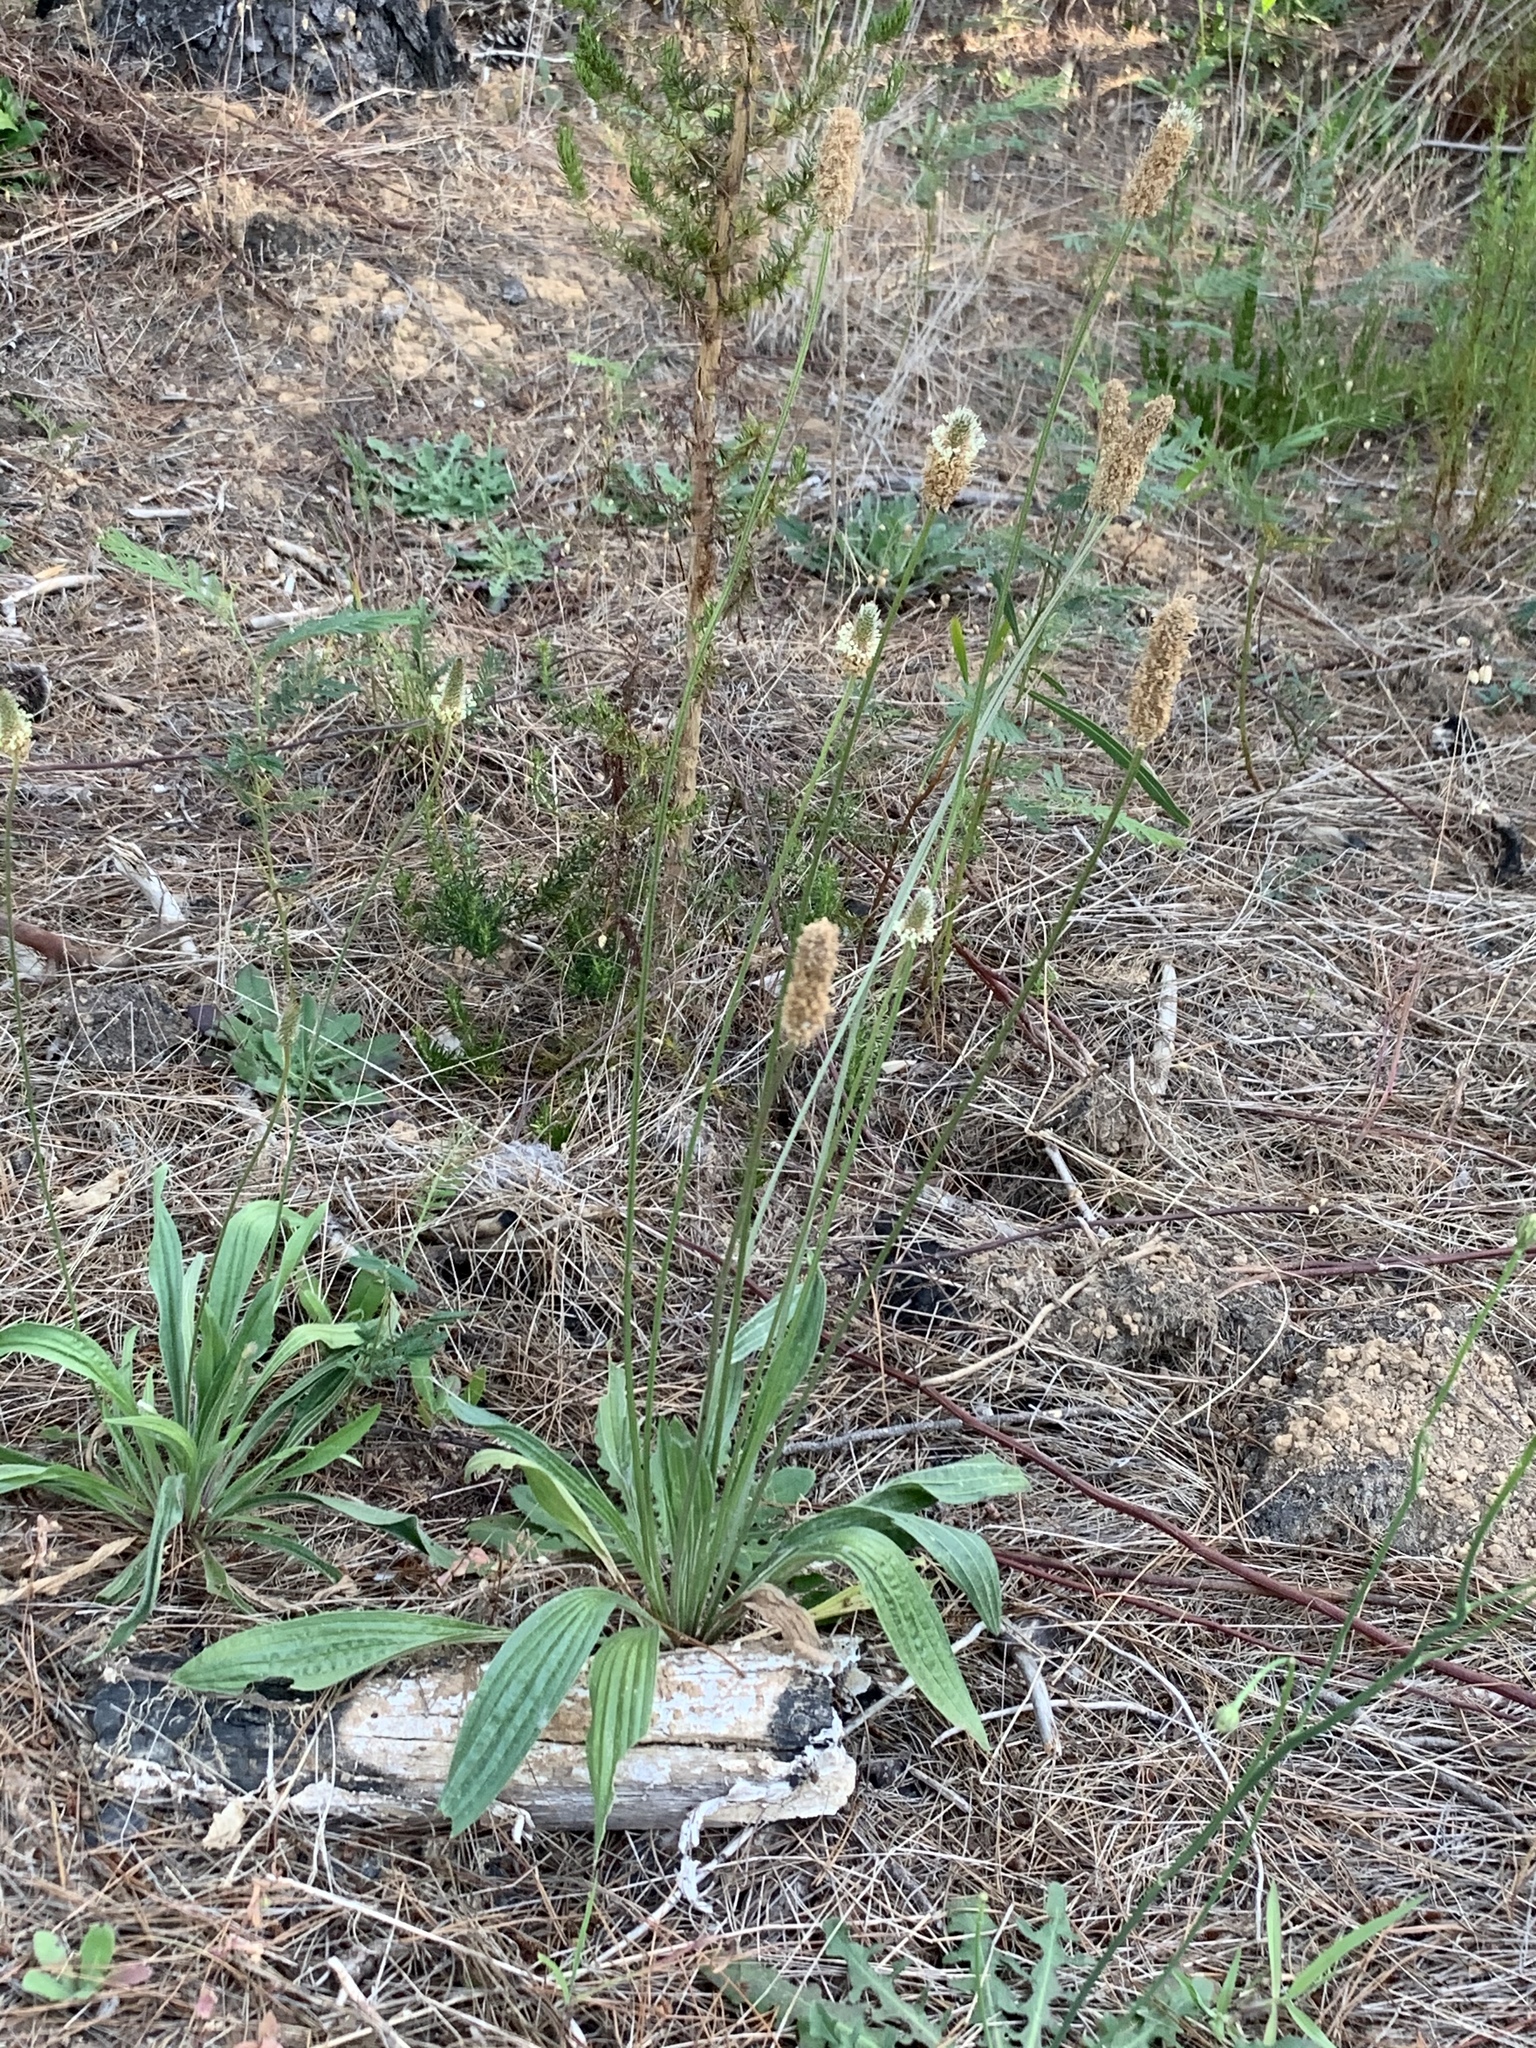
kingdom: Plantae
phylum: Tracheophyta
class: Magnoliopsida
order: Lamiales
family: Plantaginaceae
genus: Plantago
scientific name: Plantago lanceolata
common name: Ribwort plantain
